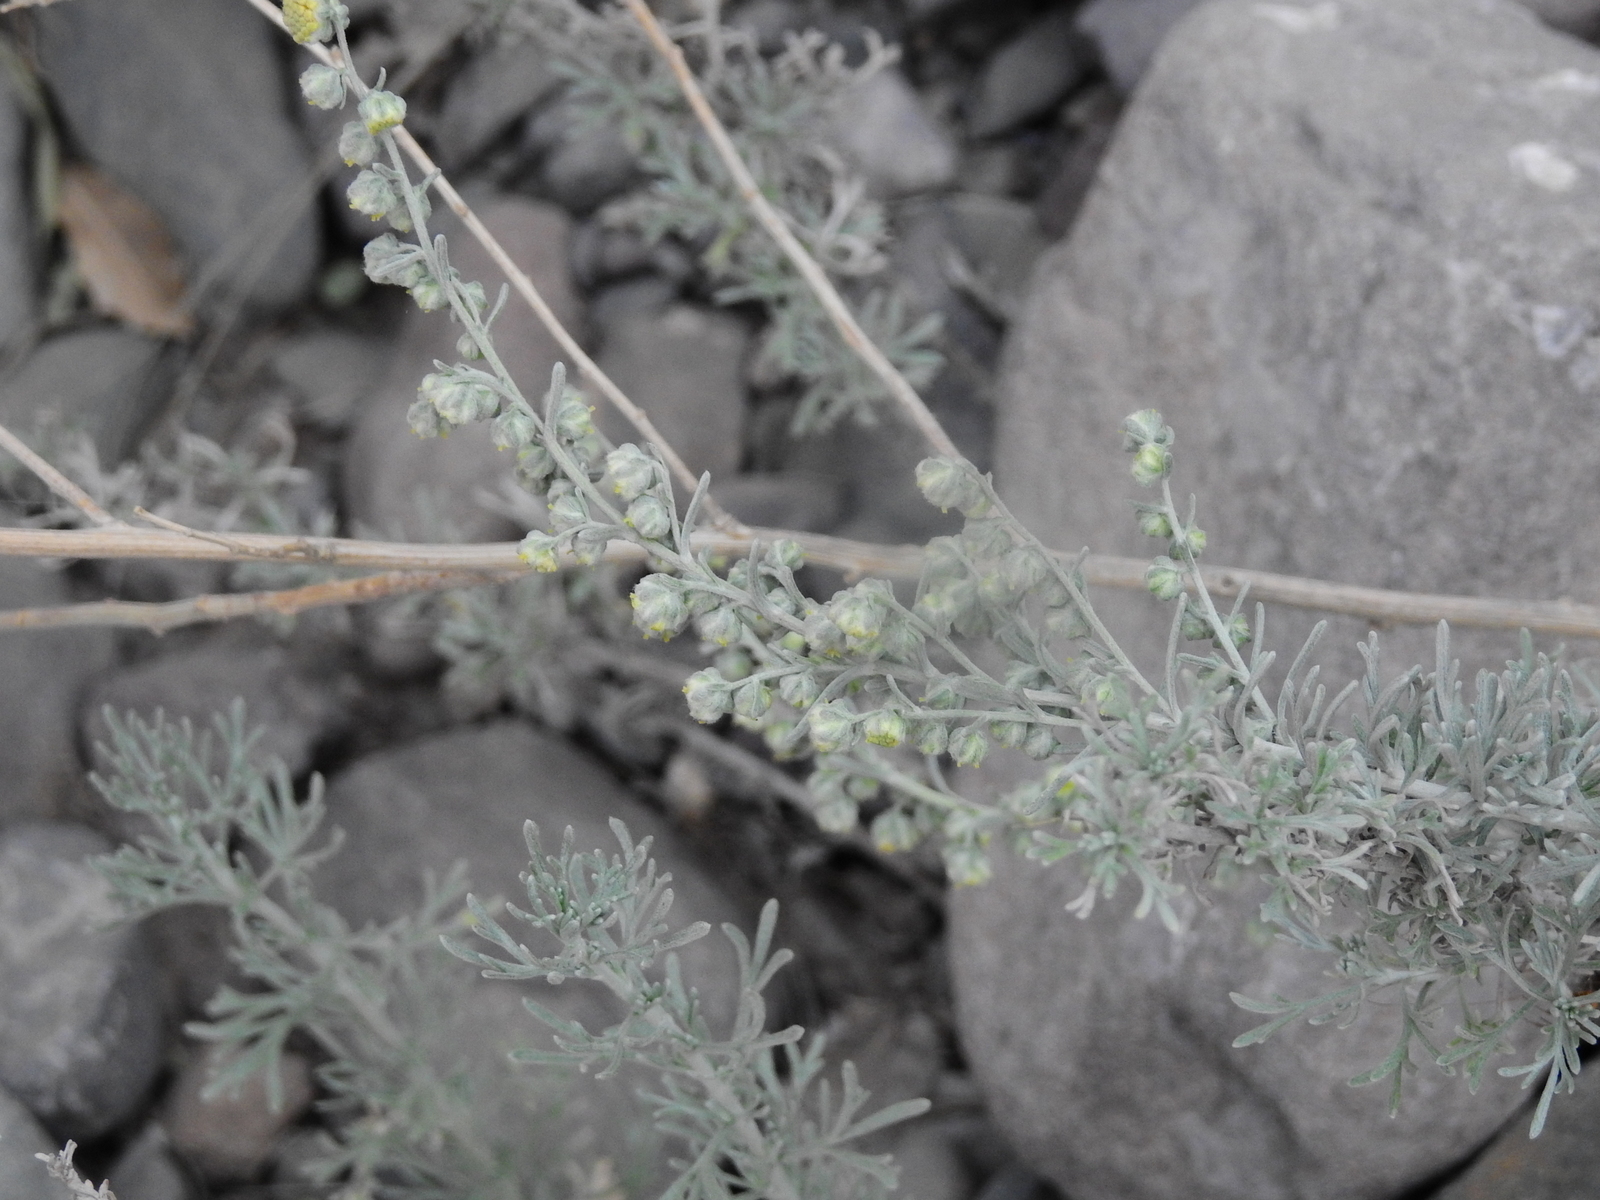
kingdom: Plantae
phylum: Tracheophyta
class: Magnoliopsida
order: Asterales
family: Asteraceae
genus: Artemisia
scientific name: Artemisia mendozana
